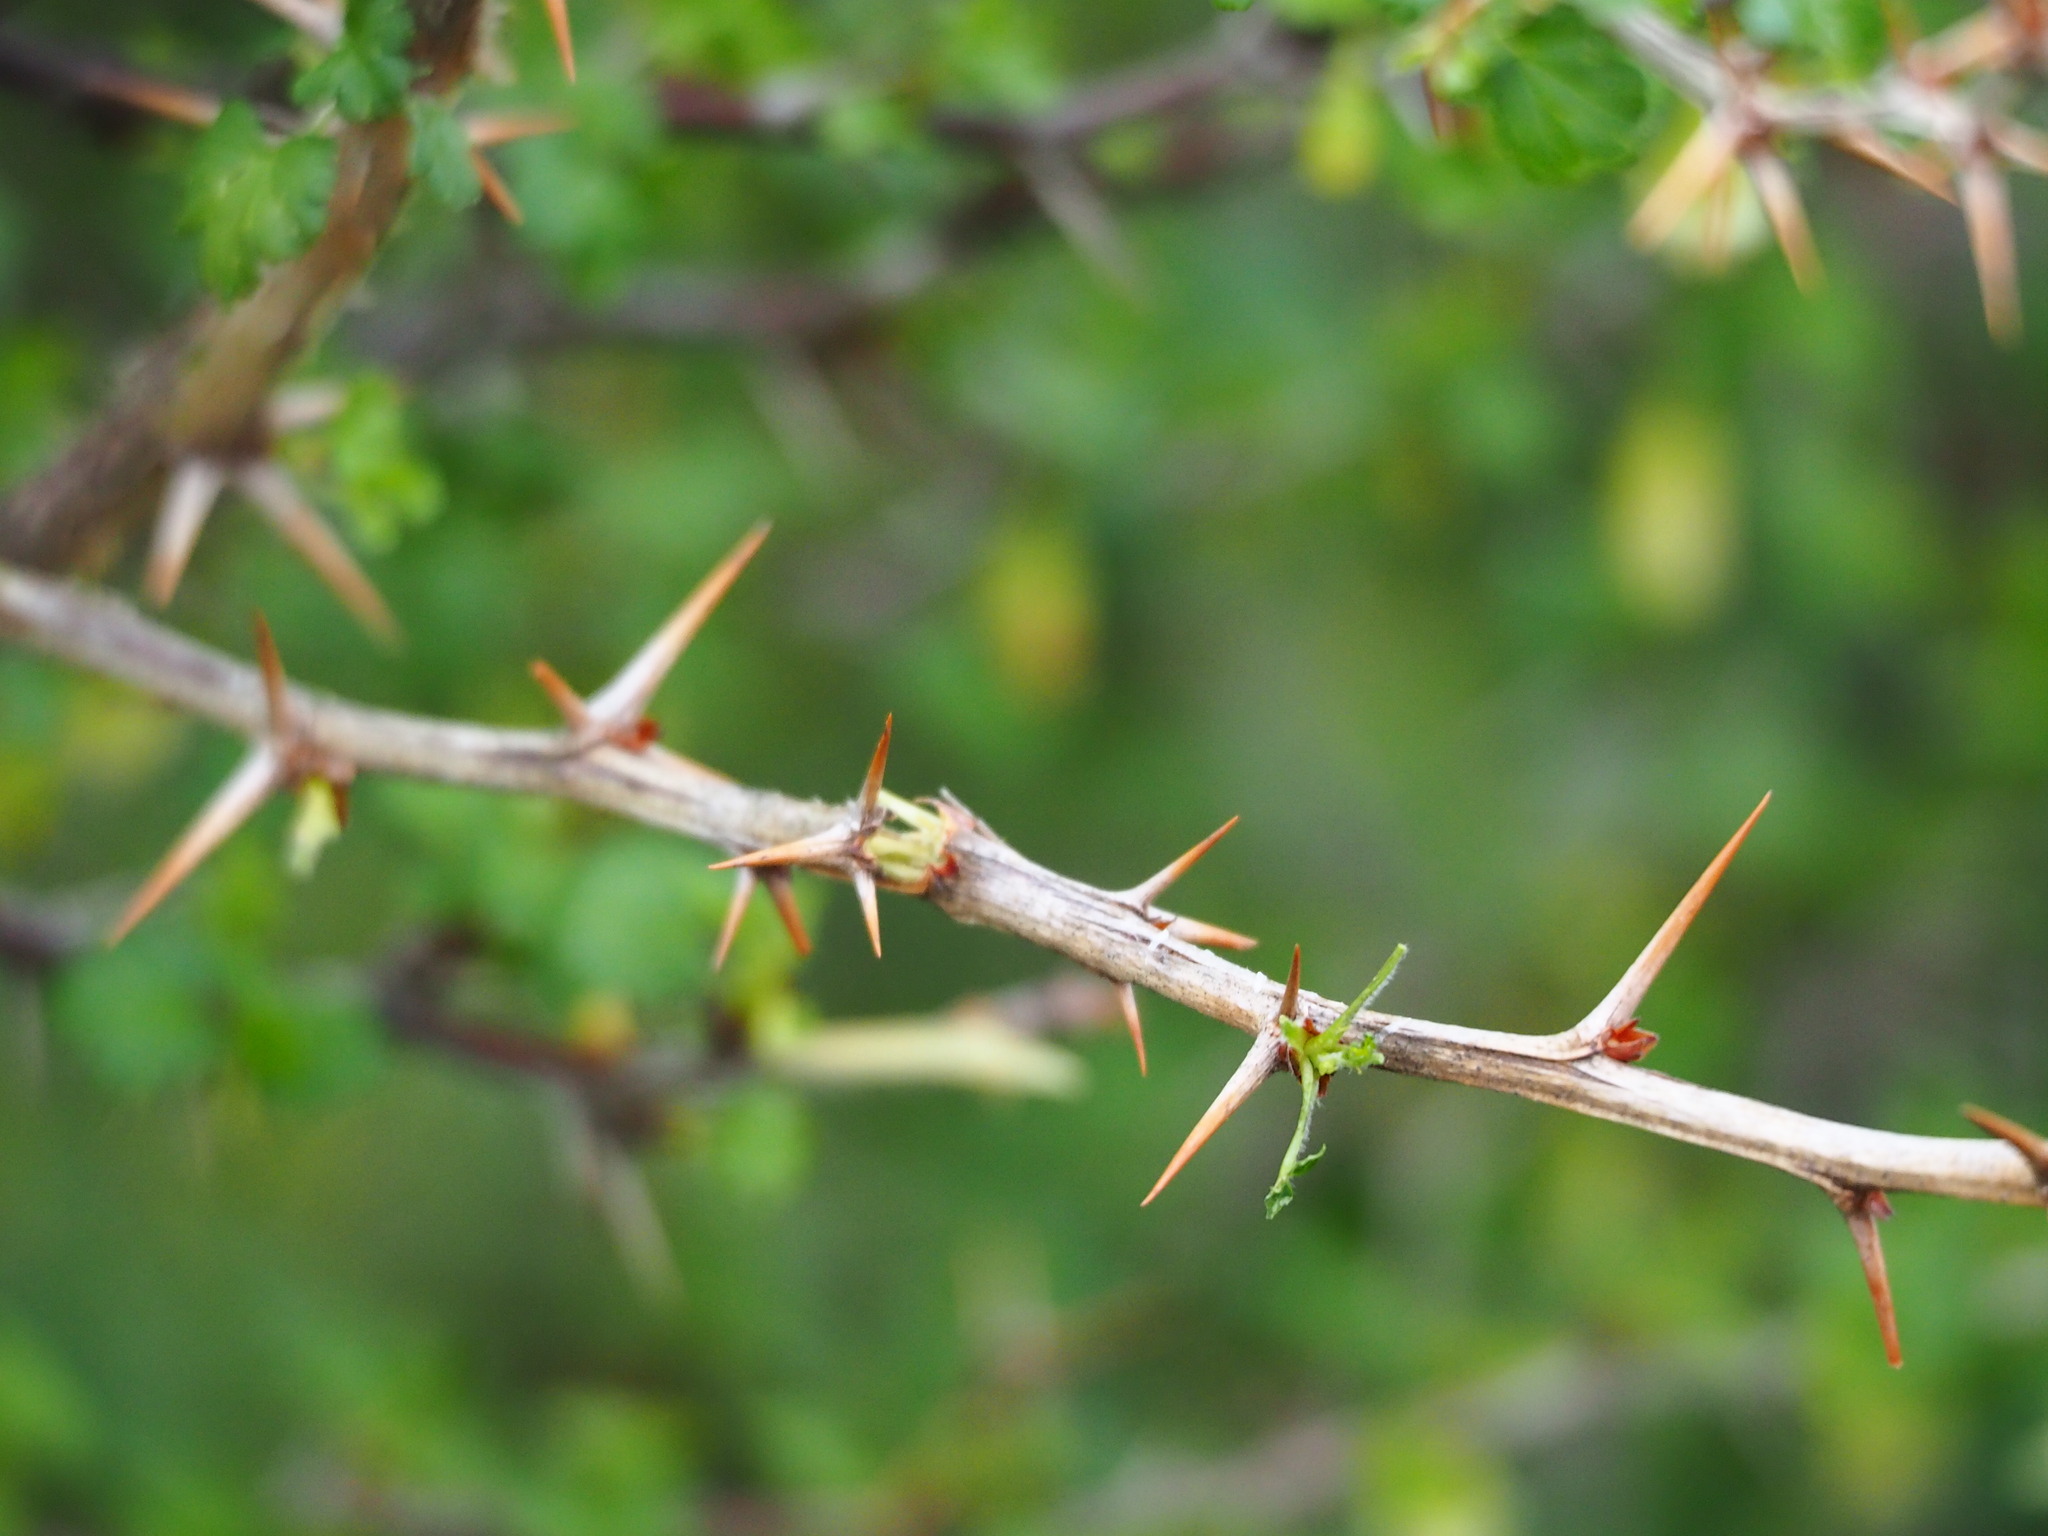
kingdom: Plantae
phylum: Tracheophyta
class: Magnoliopsida
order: Saxifragales
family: Grossulariaceae
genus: Ribes
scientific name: Ribes formosanum
